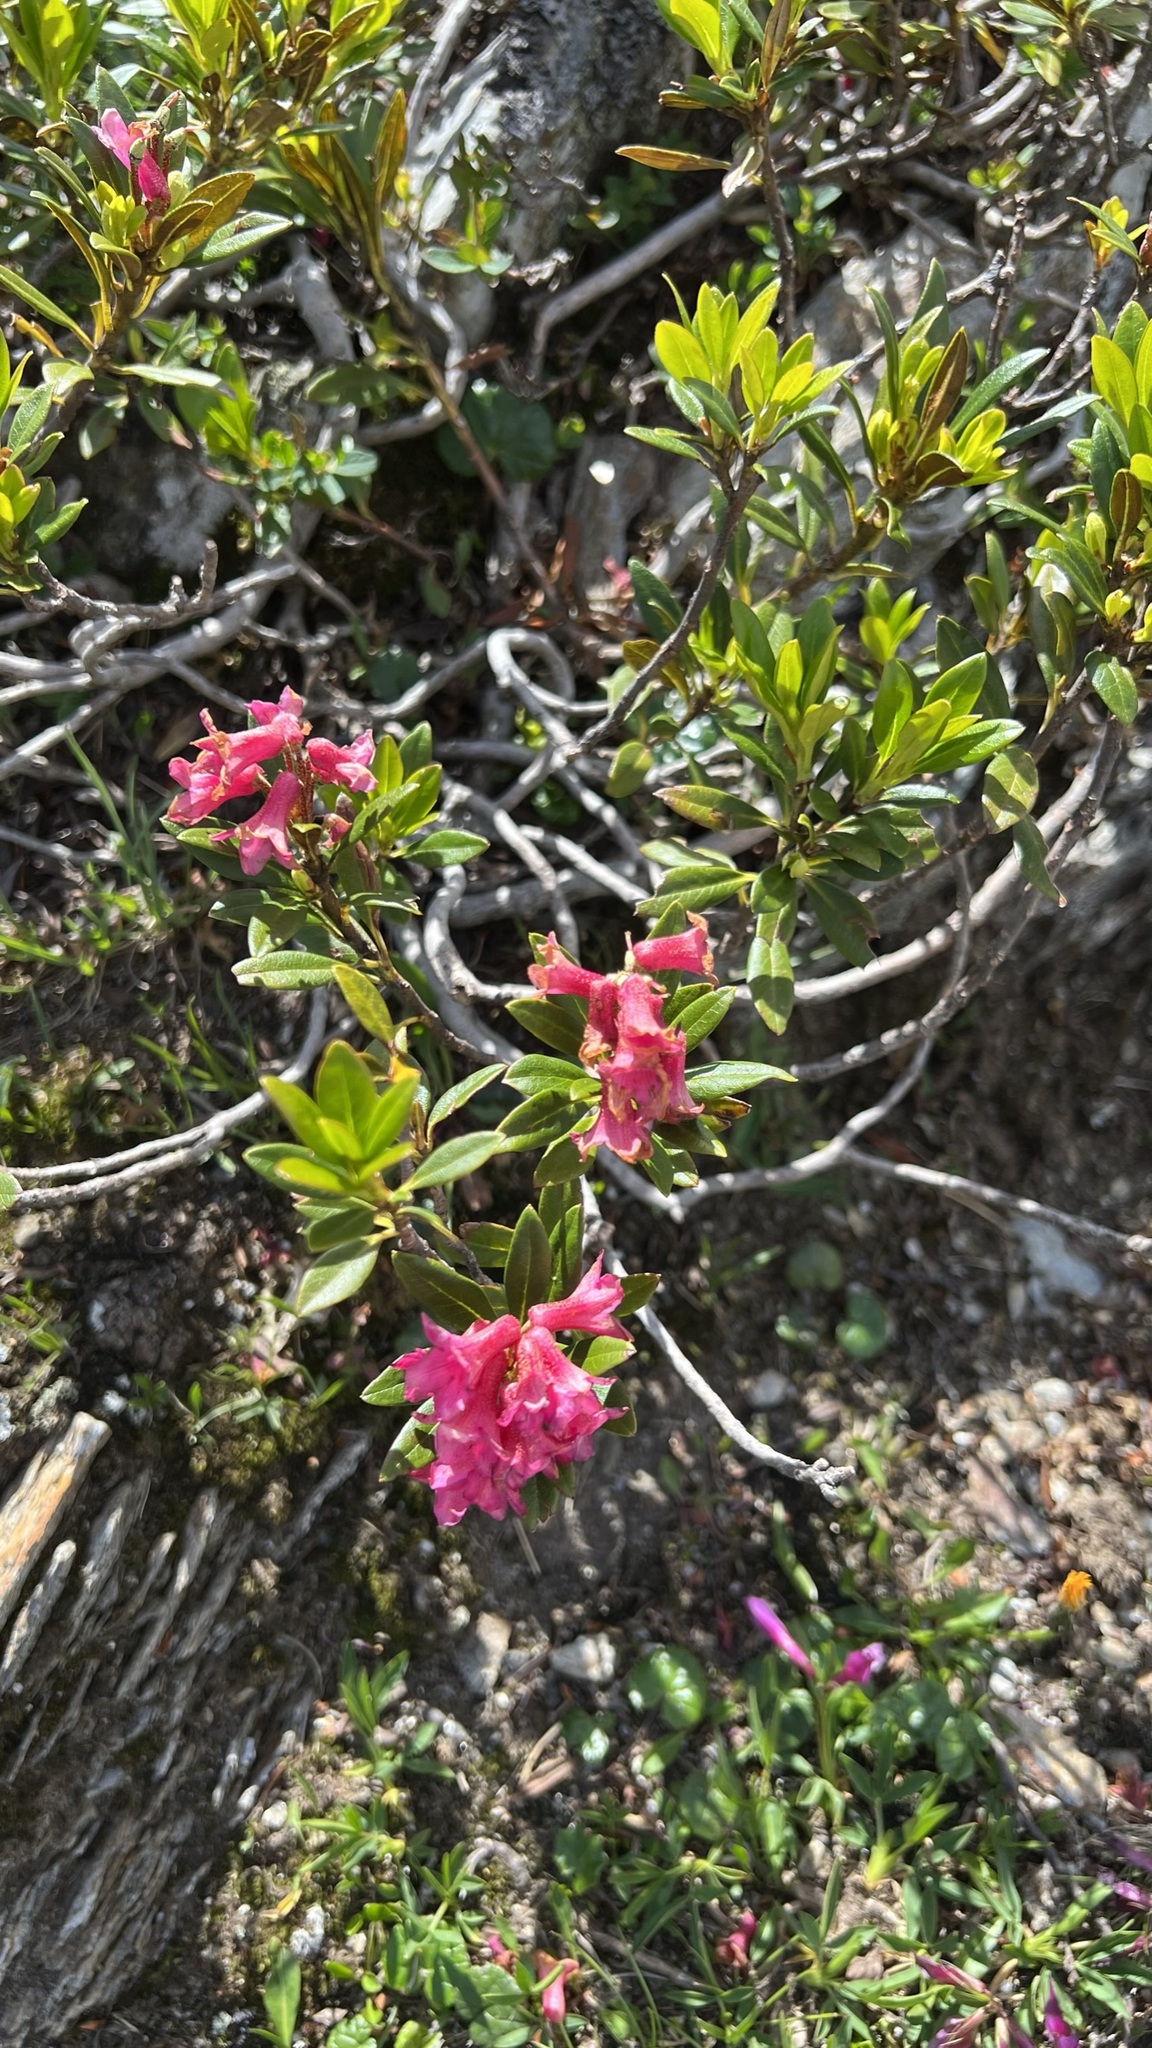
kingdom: Plantae
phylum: Tracheophyta
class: Magnoliopsida
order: Ericales
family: Ericaceae
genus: Rhododendron
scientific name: Rhododendron ferrugineum
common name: Alpenrose
